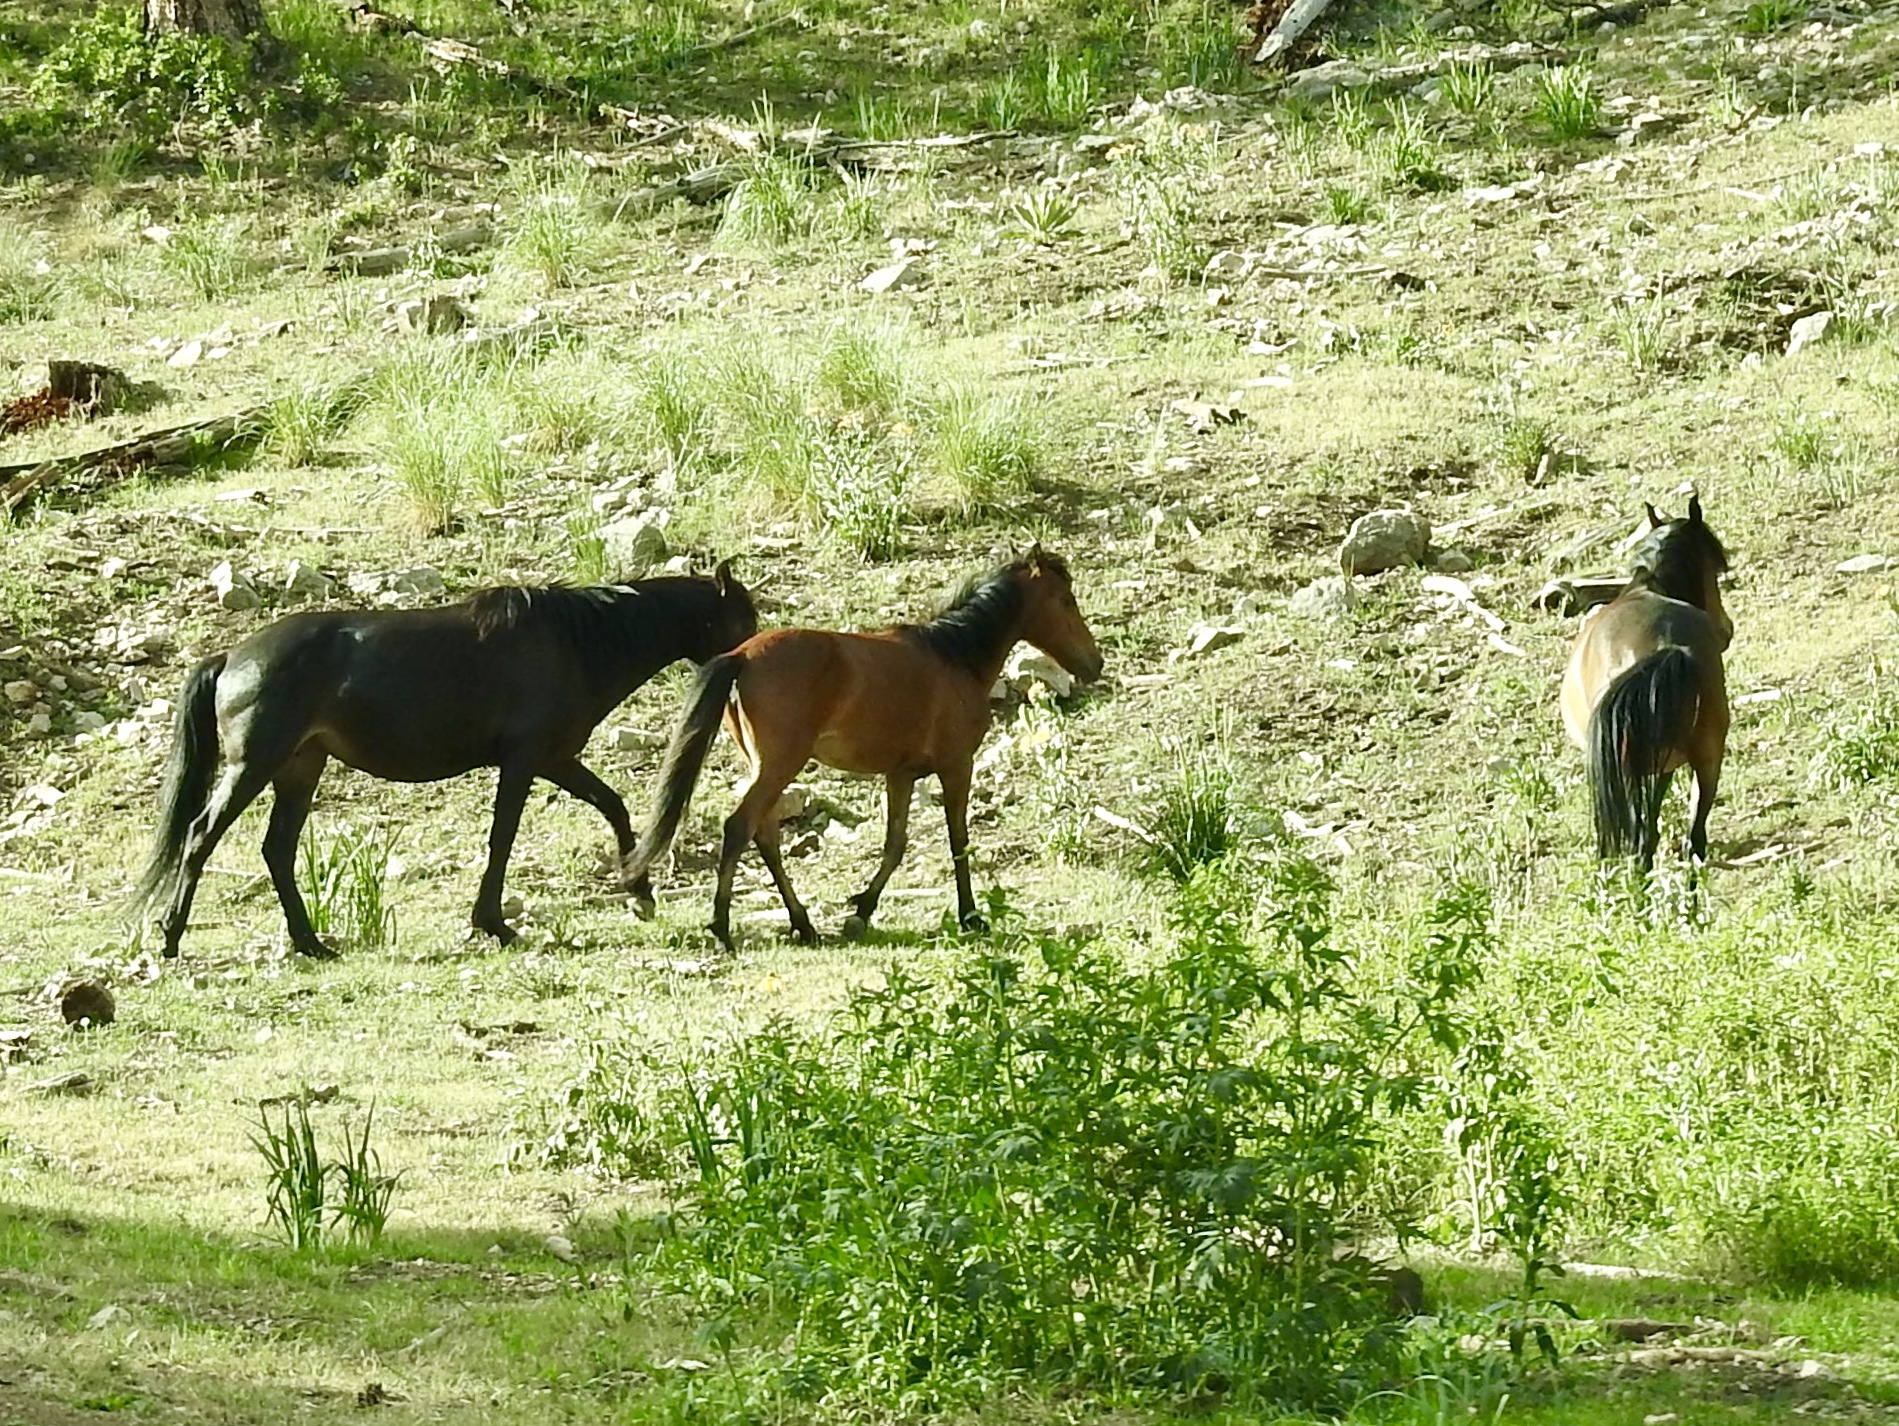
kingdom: Animalia
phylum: Chordata
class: Mammalia
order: Perissodactyla
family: Equidae
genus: Equus
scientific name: Equus caballus
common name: Horse
